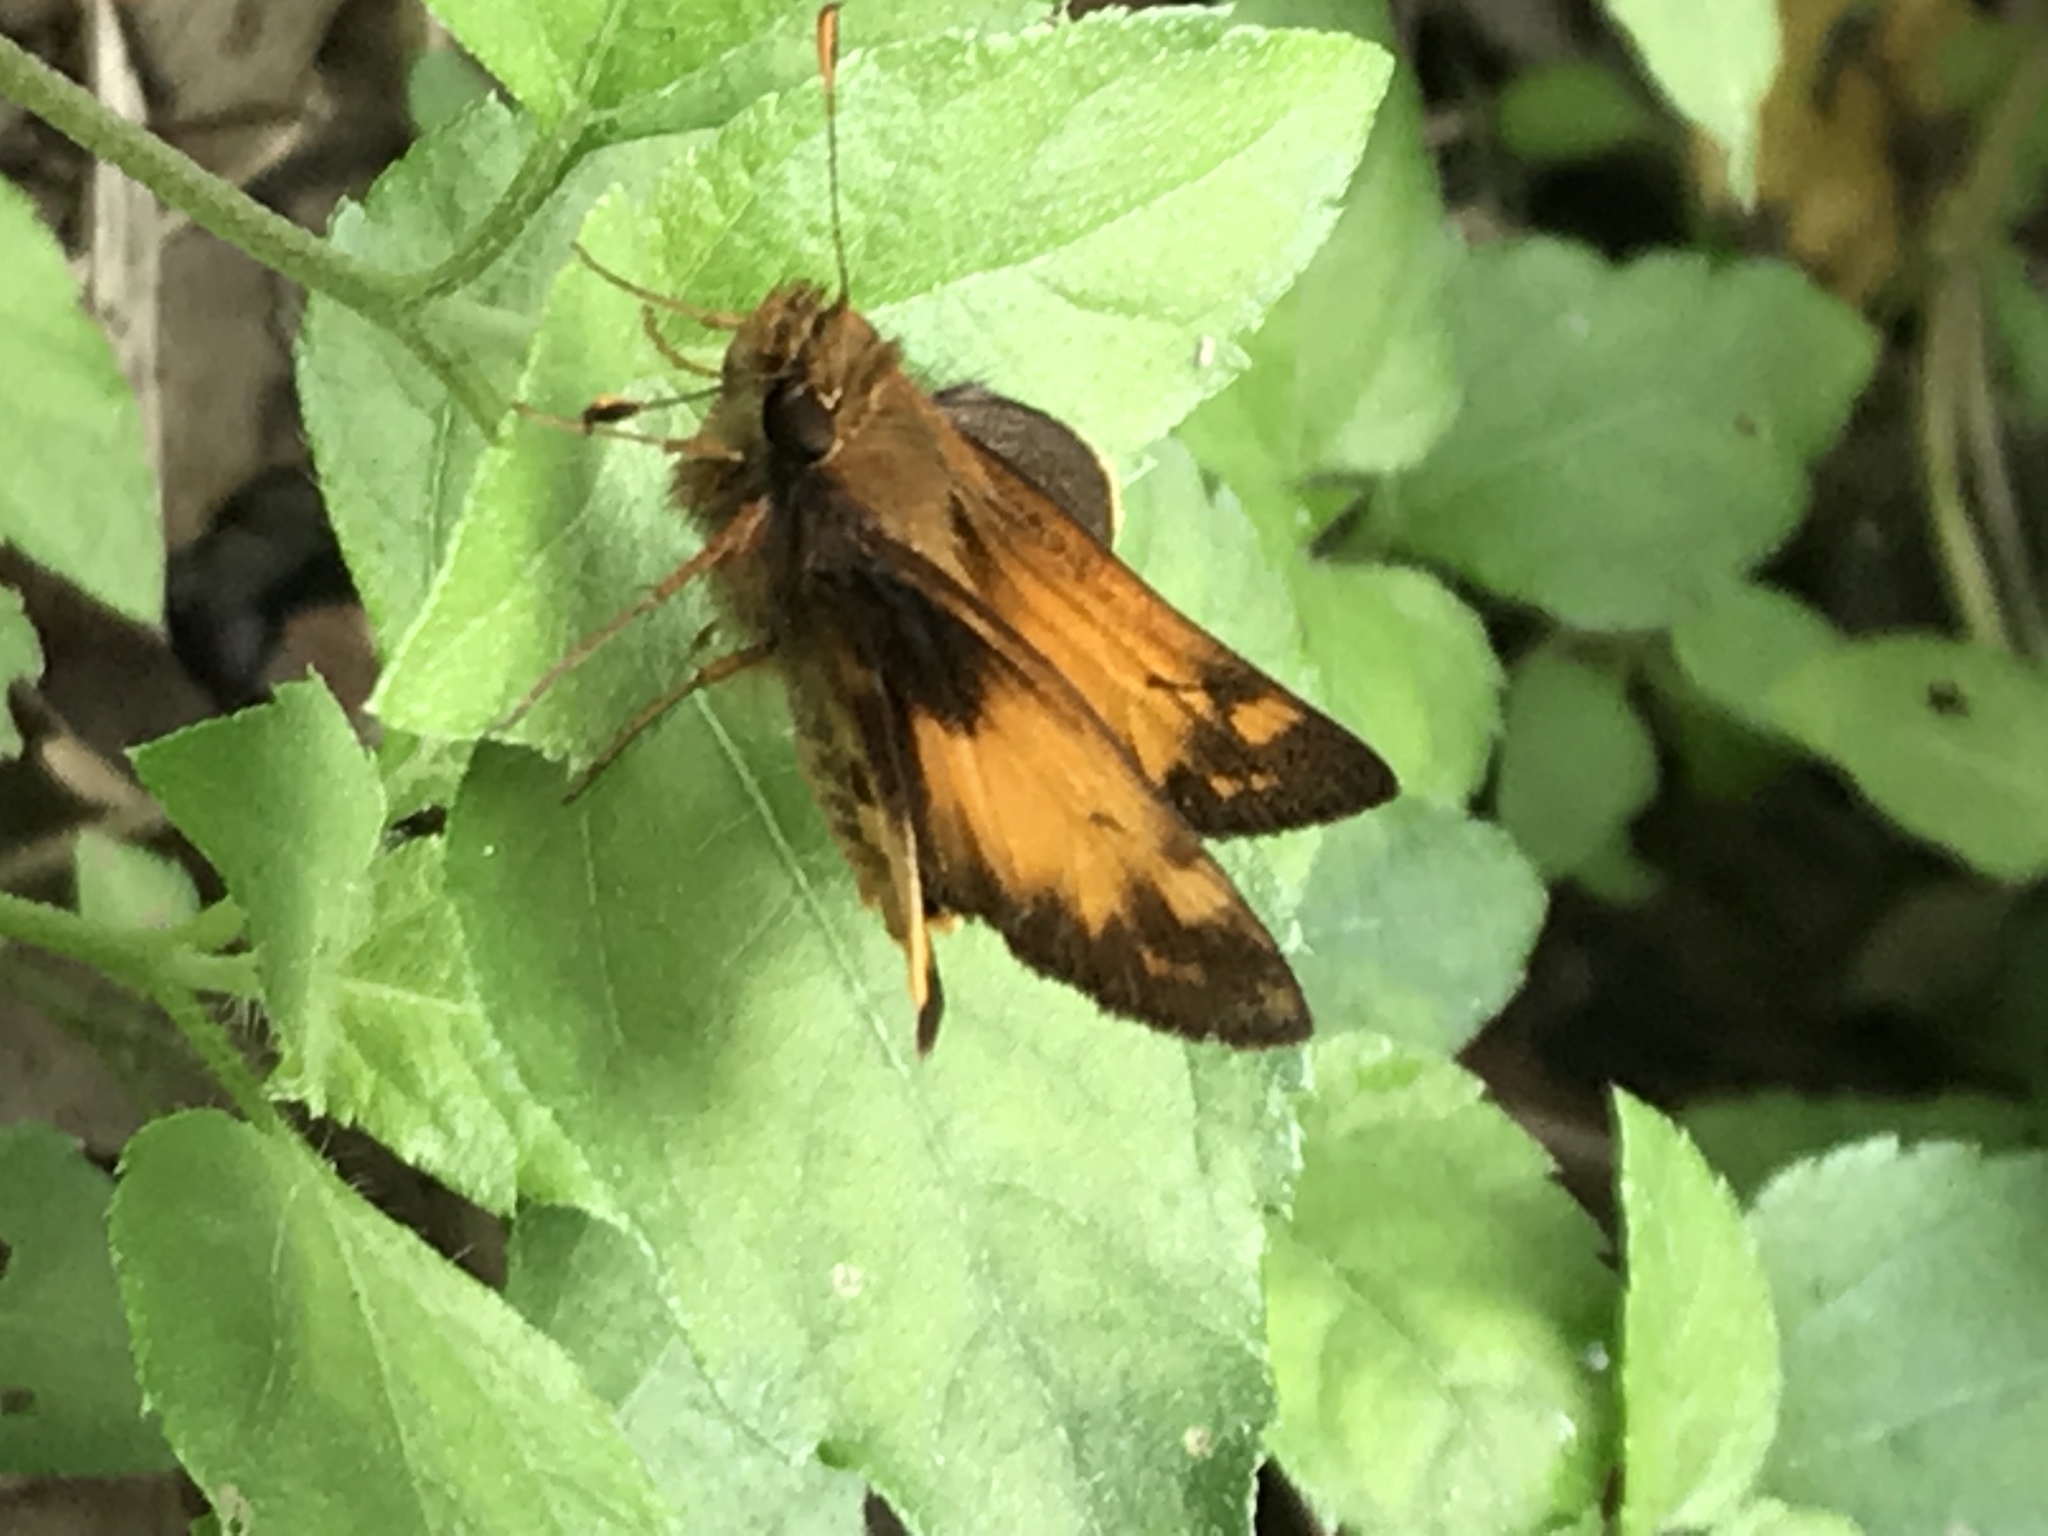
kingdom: Animalia
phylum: Arthropoda
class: Insecta
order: Lepidoptera
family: Hesperiidae
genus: Lon
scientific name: Lon zabulon
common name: Zabulon skipper
